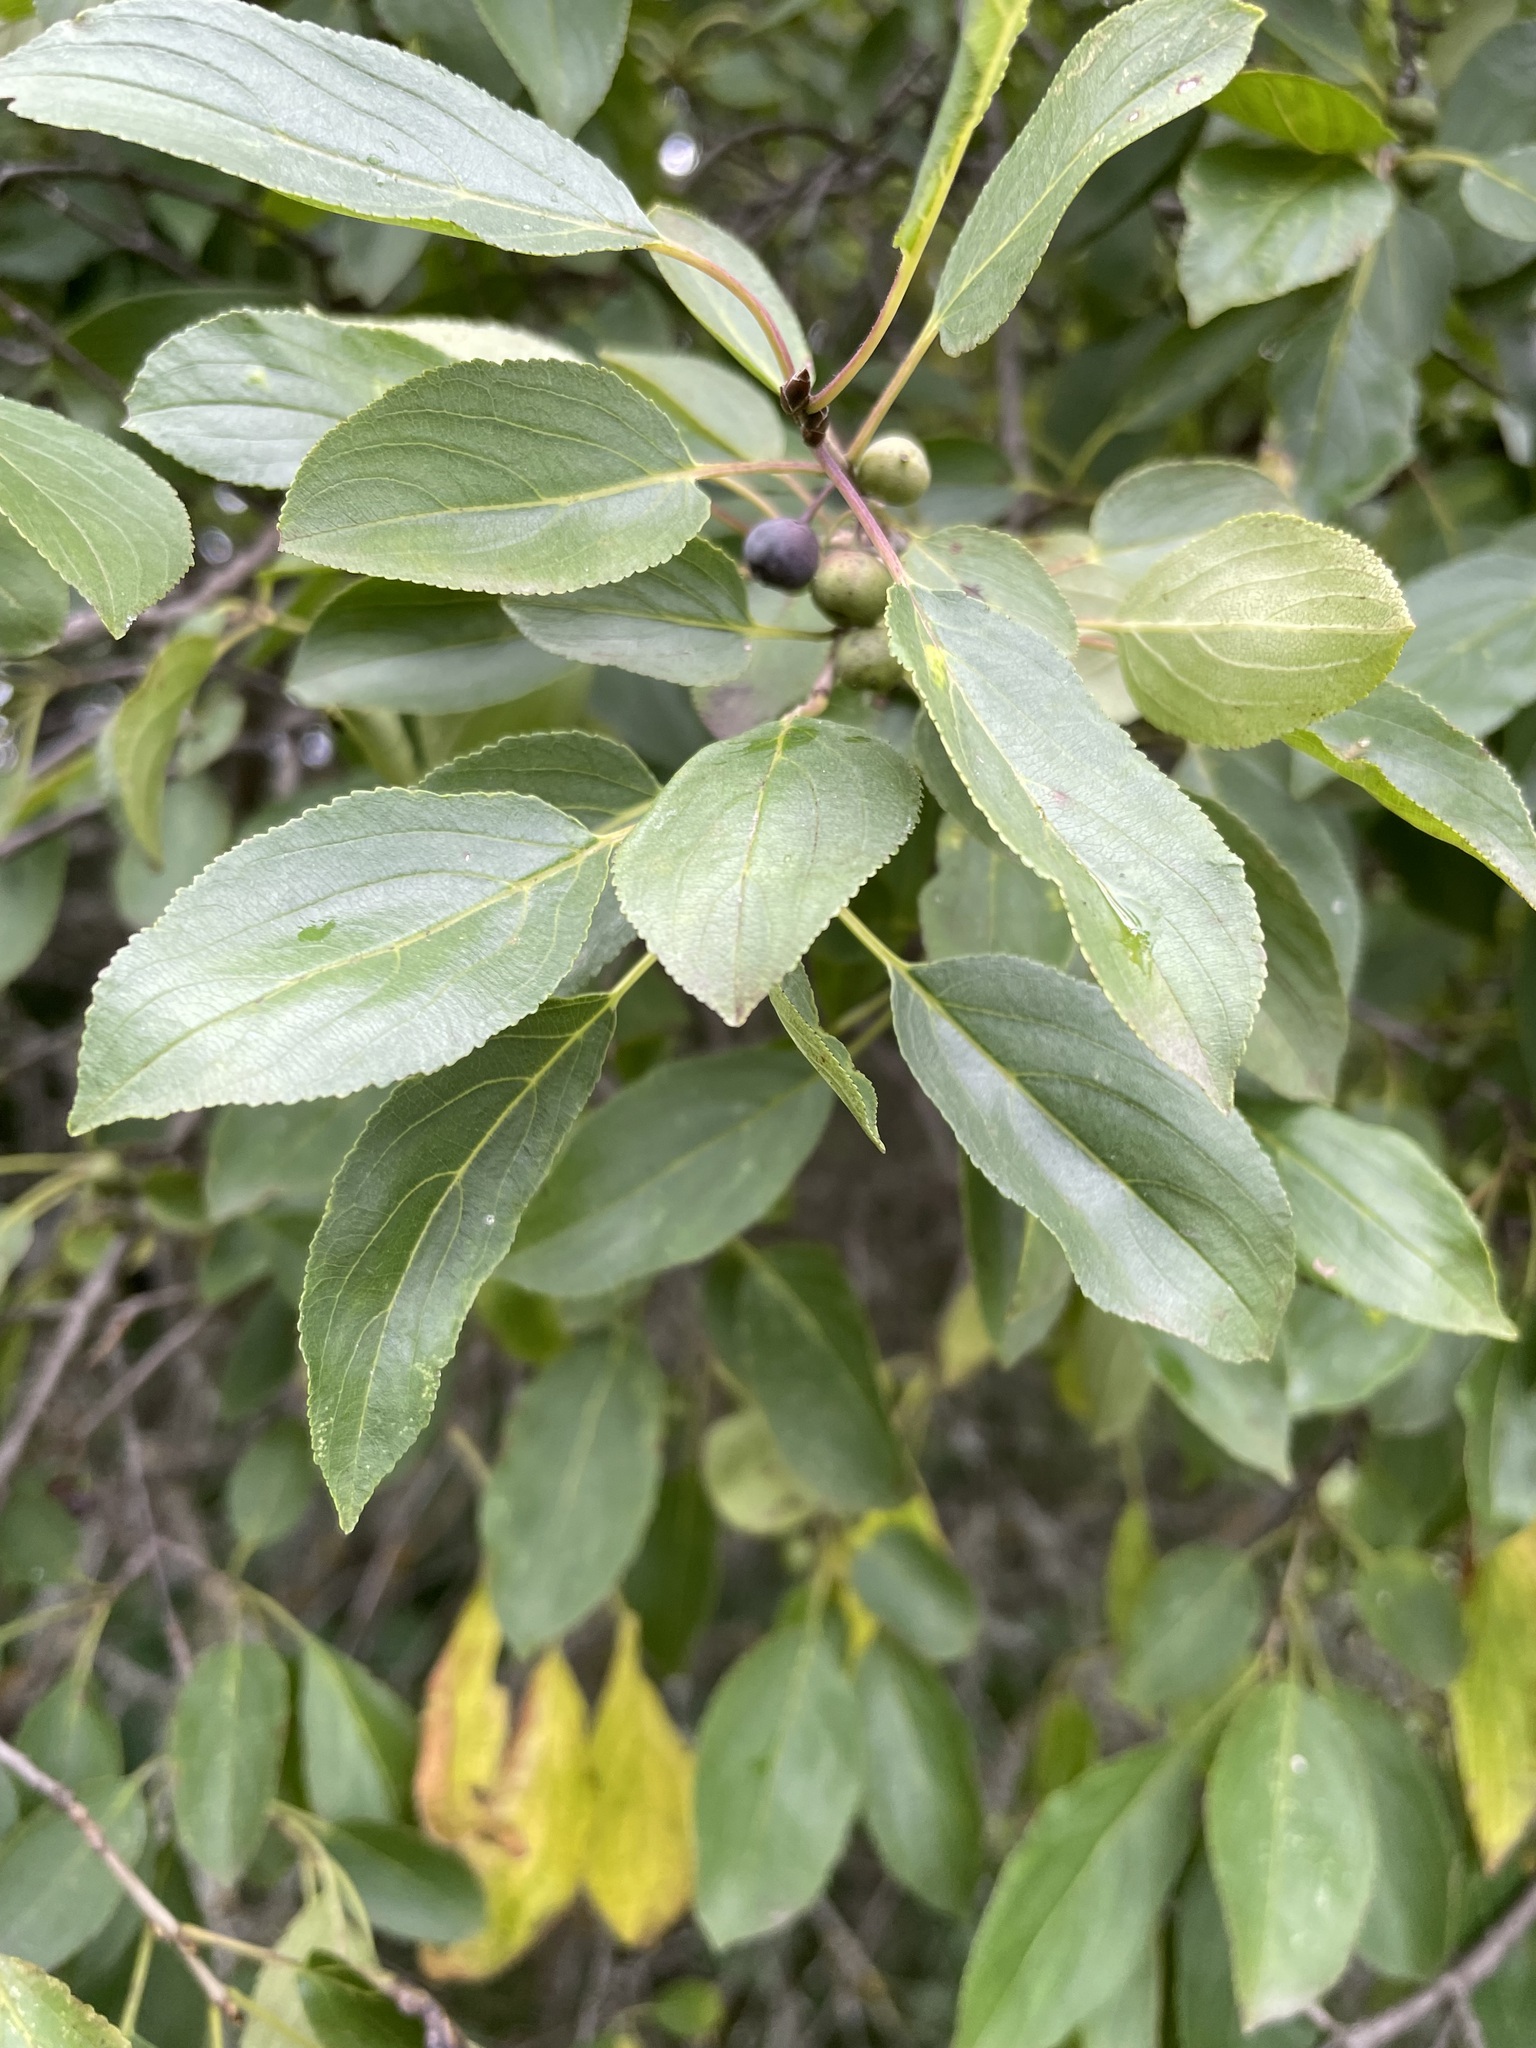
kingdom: Plantae
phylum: Tracheophyta
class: Magnoliopsida
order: Rosales
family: Rhamnaceae
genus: Rhamnus
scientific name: Rhamnus cathartica
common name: Common buckthorn
